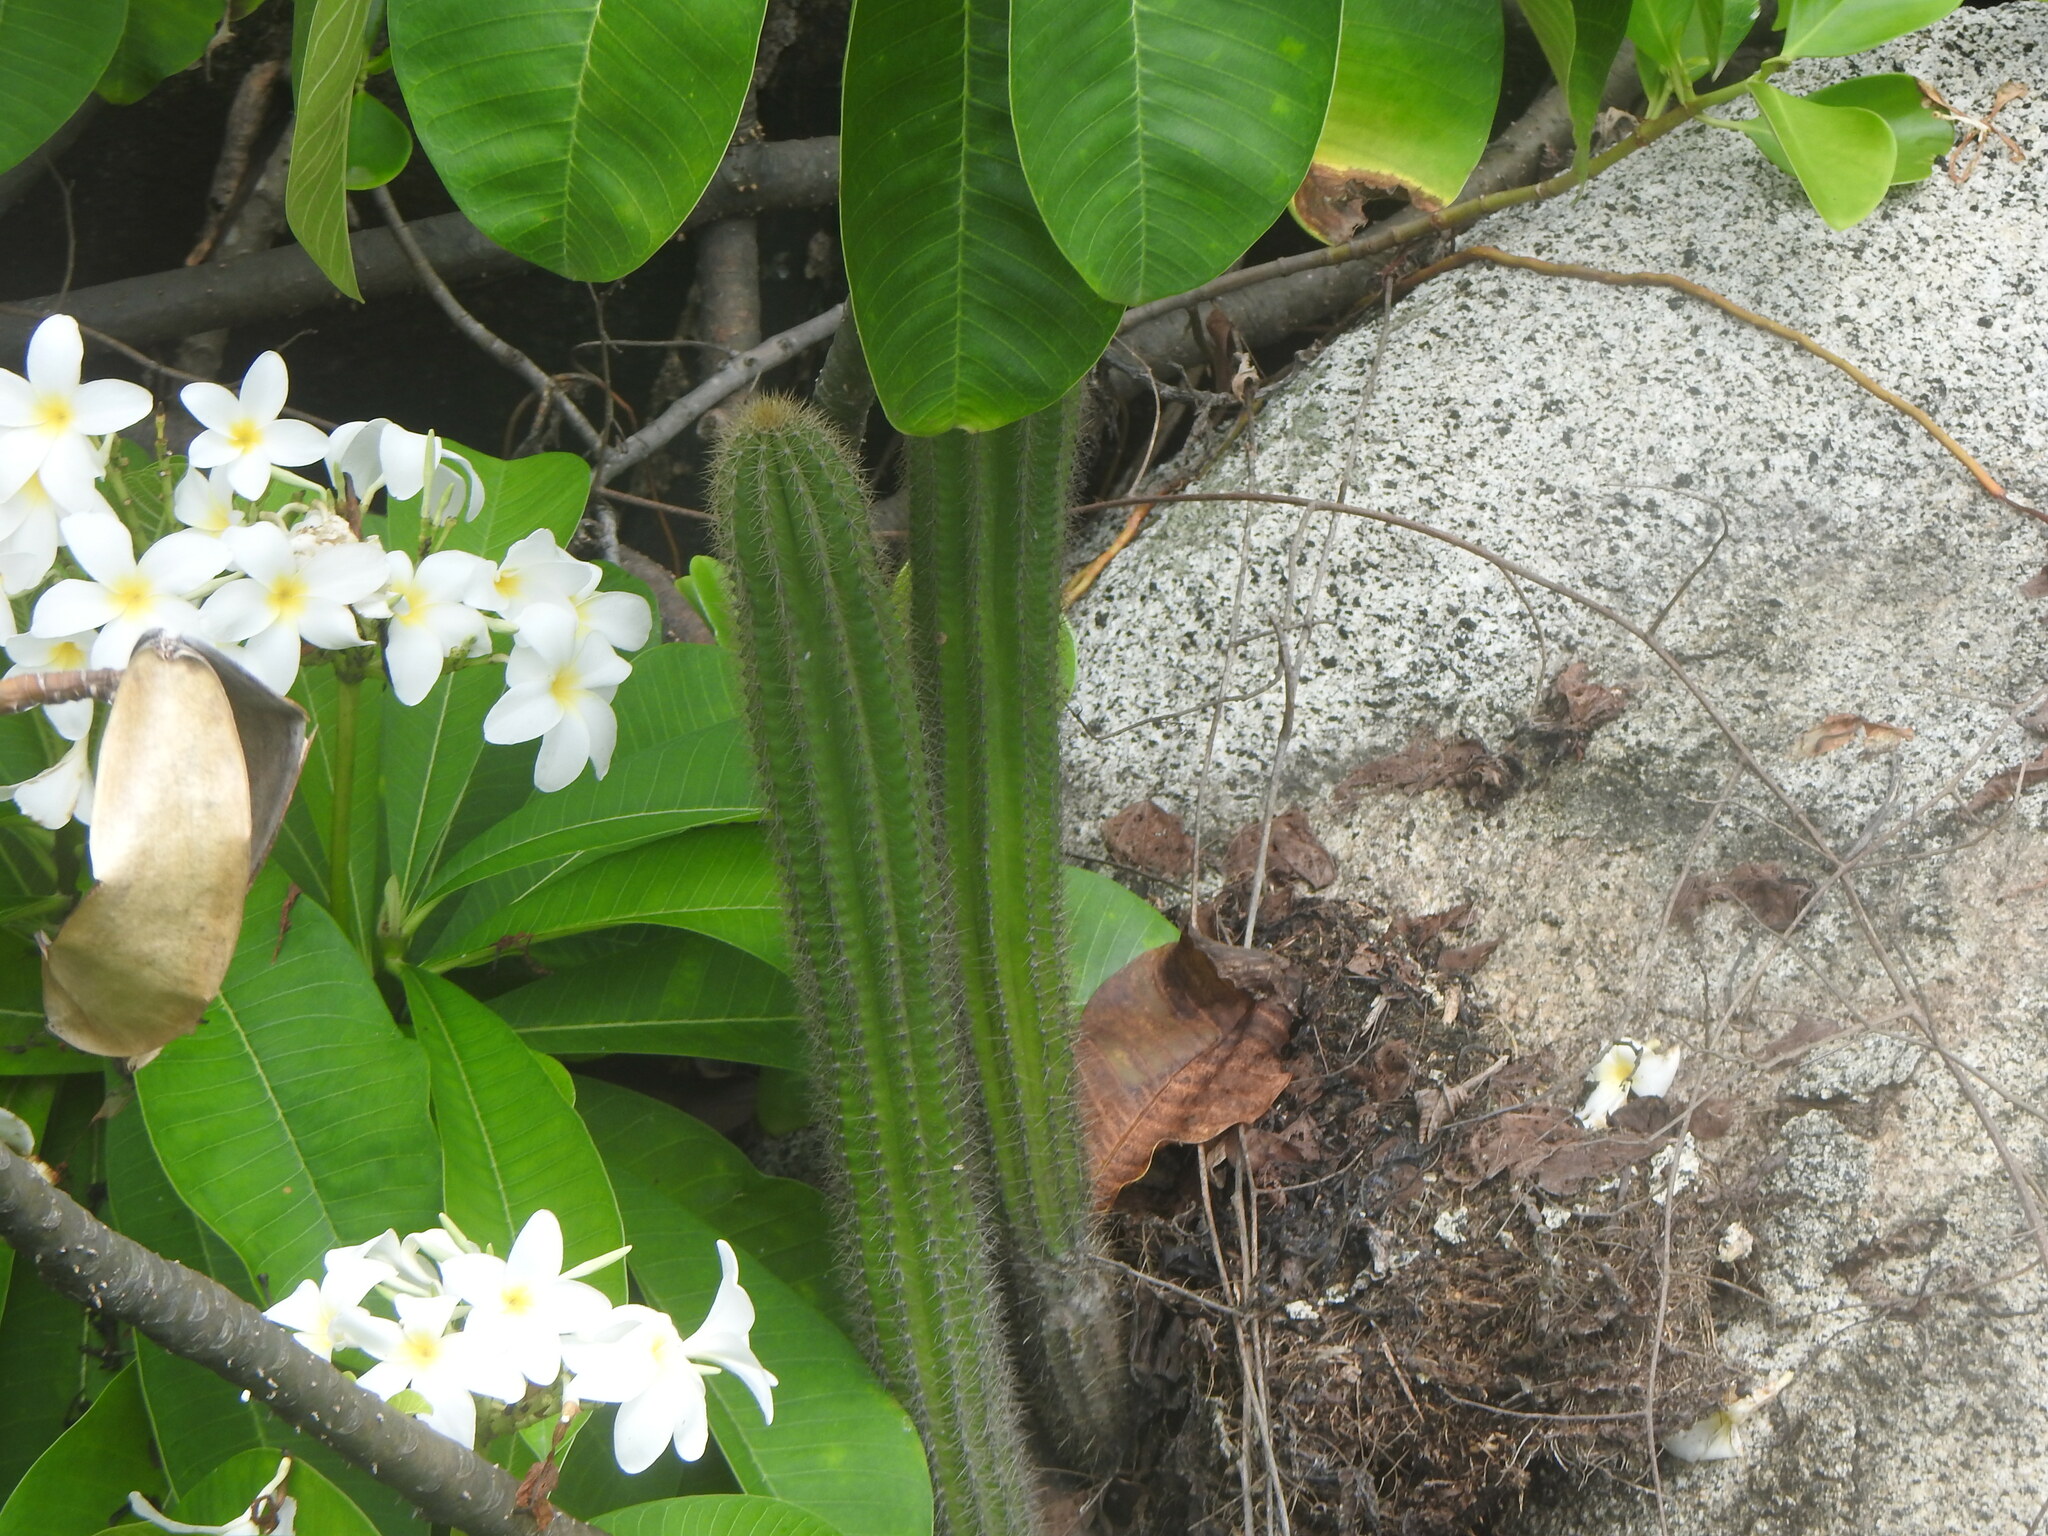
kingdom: Plantae
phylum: Tracheophyta
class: Magnoliopsida
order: Caryophyllales
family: Cactaceae
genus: Pilosocereus
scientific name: Pilosocereus lanuginosus
